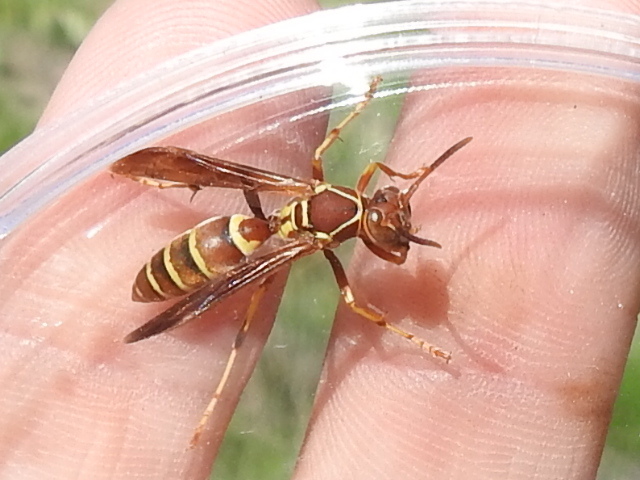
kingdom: Animalia
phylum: Arthropoda
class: Insecta
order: Hymenoptera
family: Eumenidae
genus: Polistes
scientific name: Polistes dorsalis
